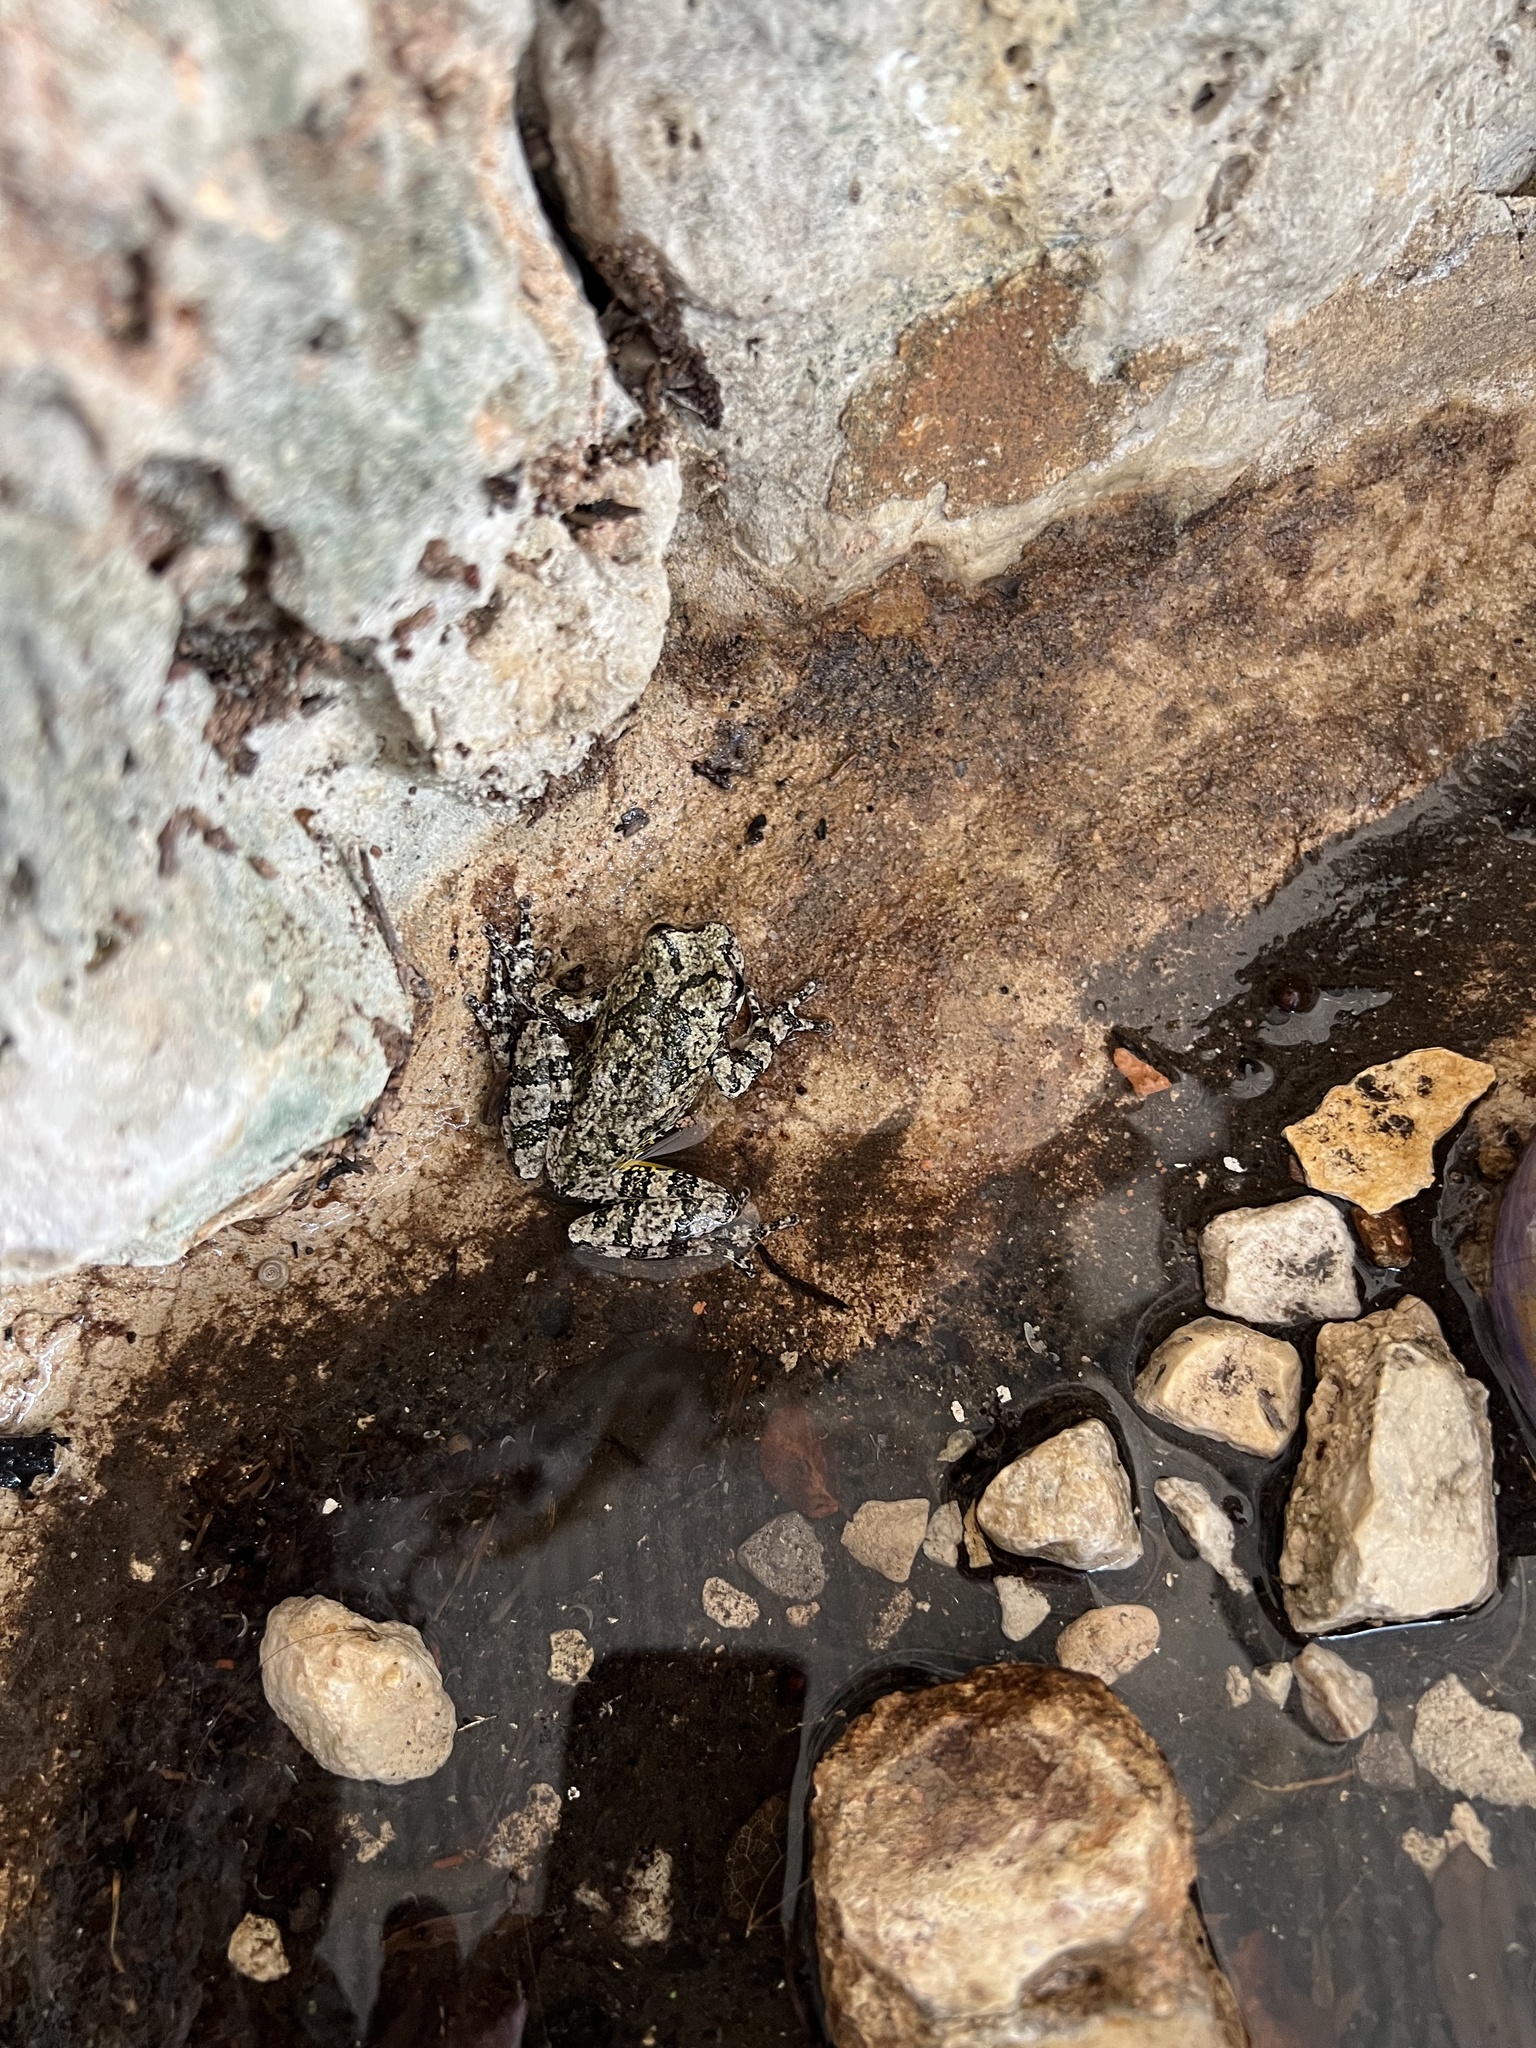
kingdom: Animalia
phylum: Chordata
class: Amphibia
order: Anura
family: Hylidae
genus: Dryophytes
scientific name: Dryophytes chrysoscelis
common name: Cope's gray treefrog
